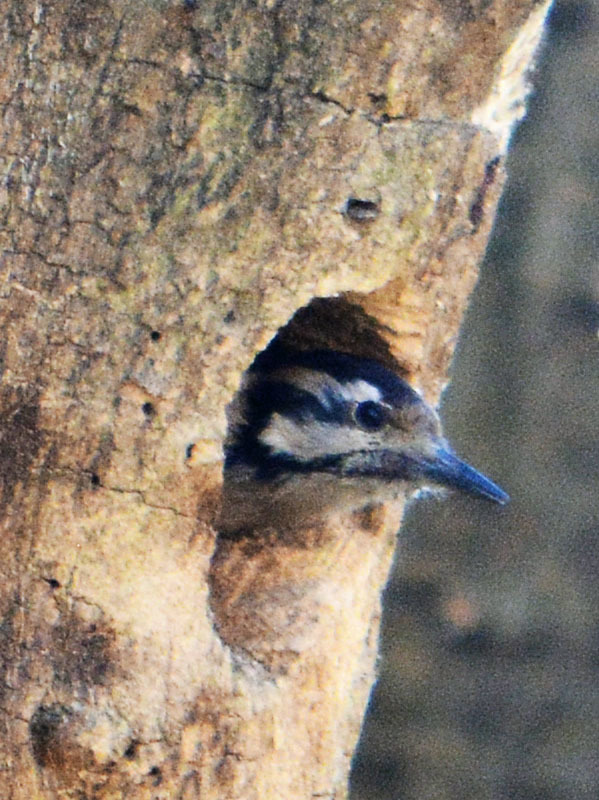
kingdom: Animalia
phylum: Chordata
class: Aves
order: Piciformes
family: Picidae
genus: Dryobates
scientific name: Dryobates scalaris
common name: Ladder-backed woodpecker
